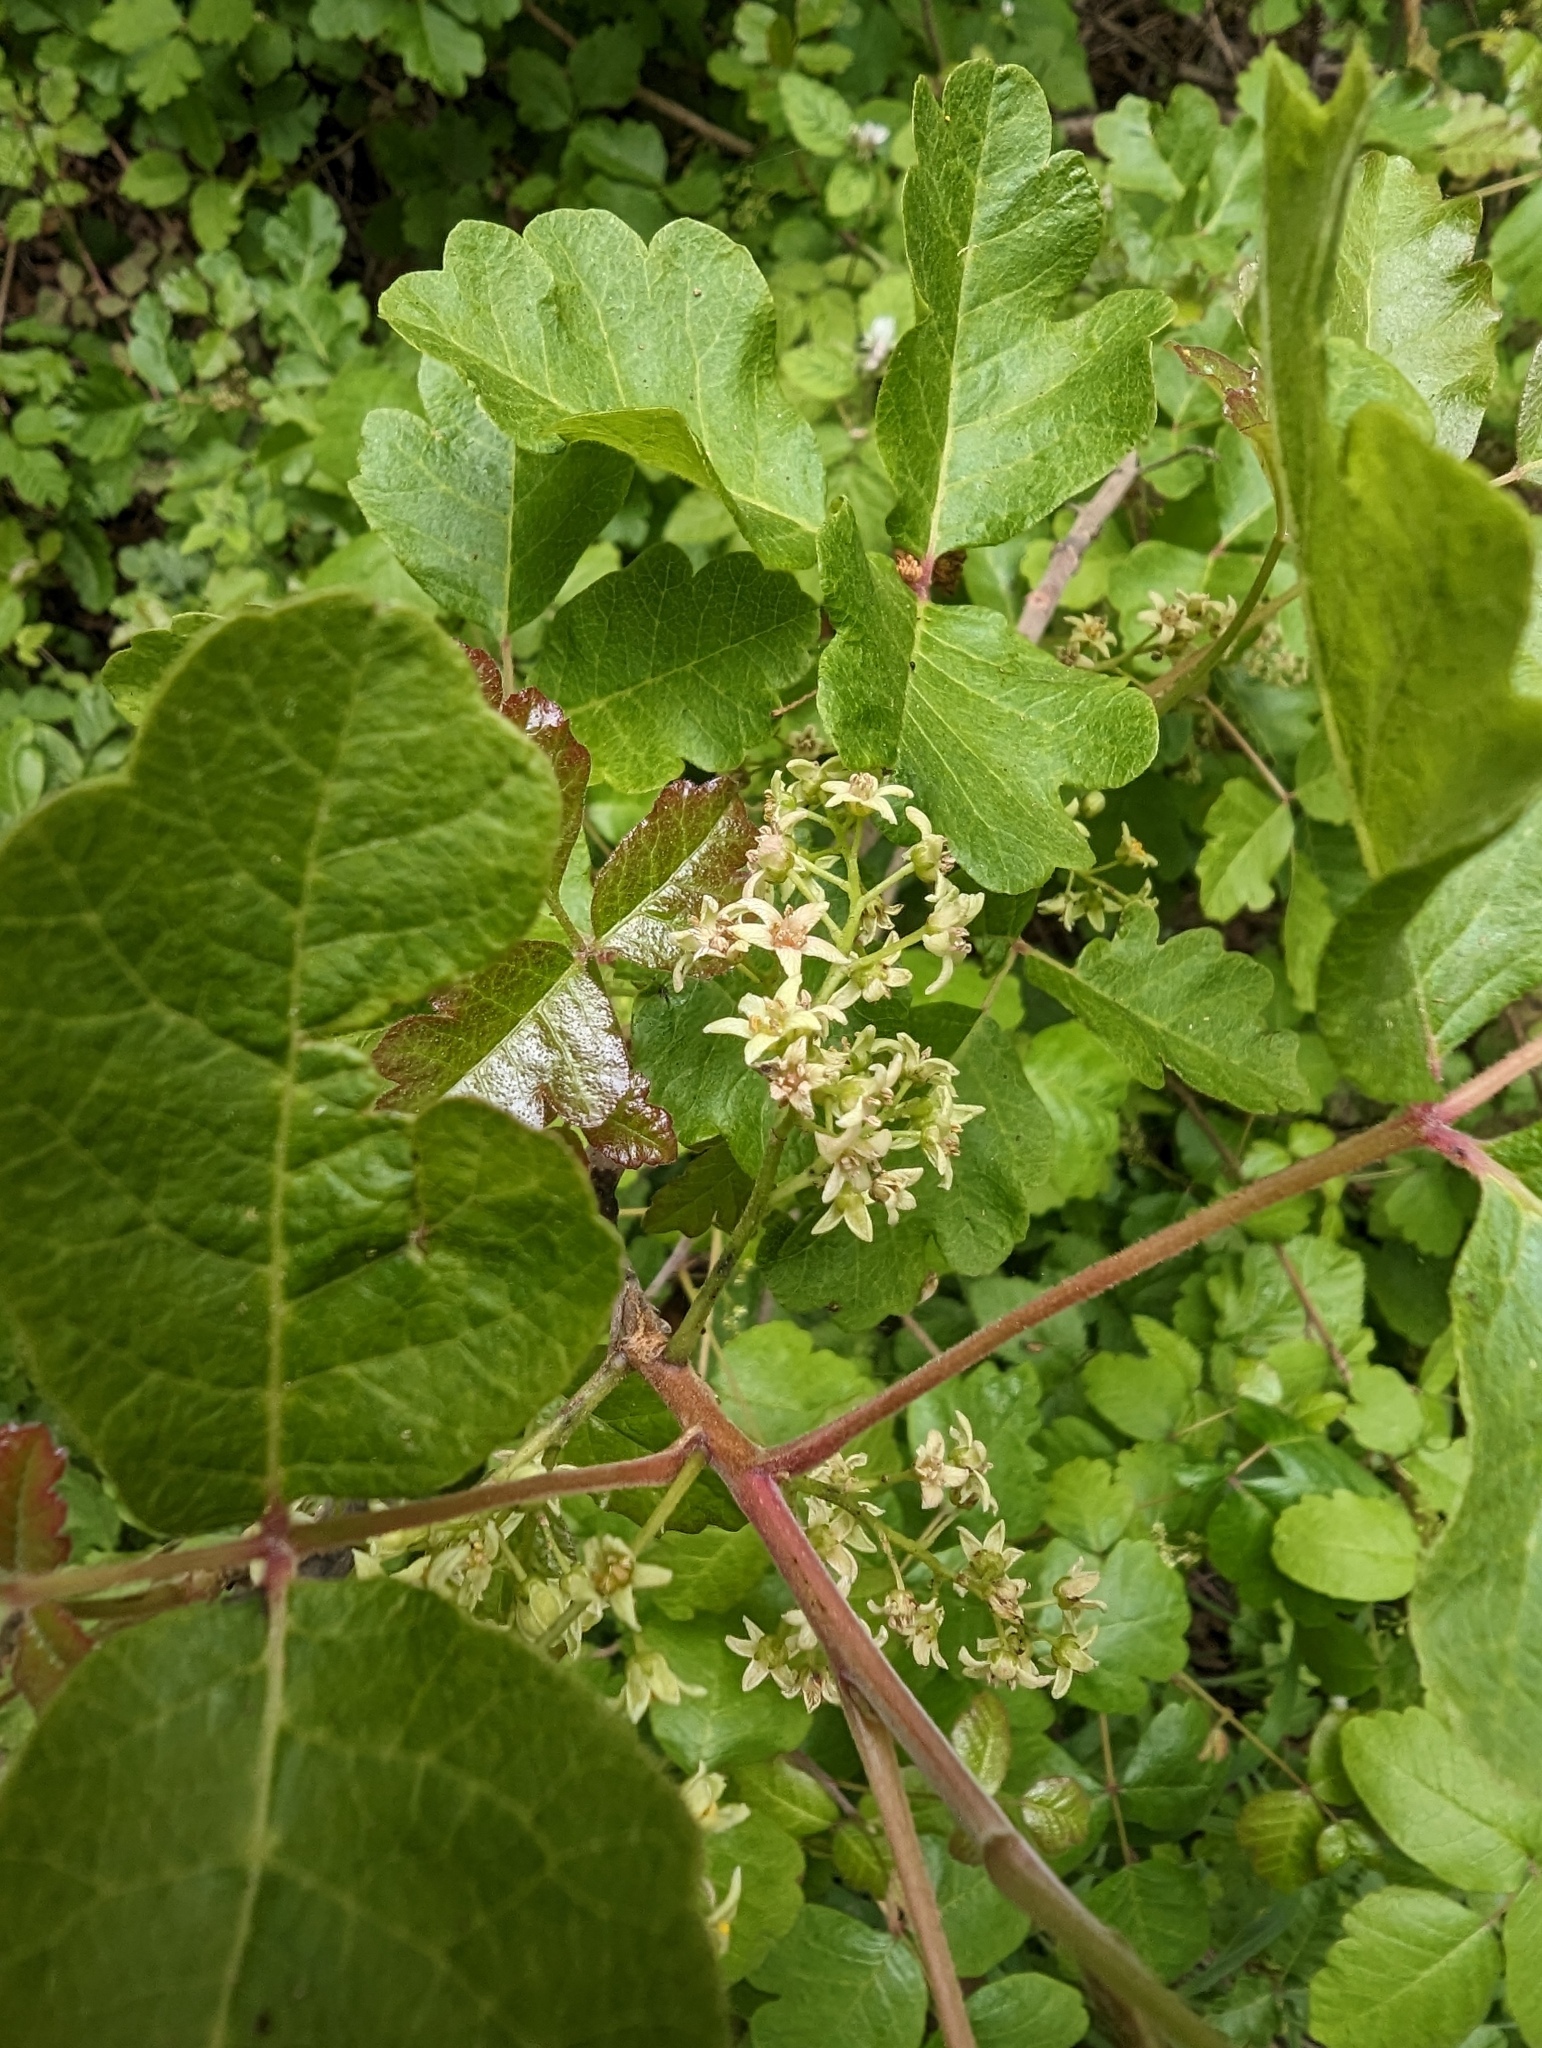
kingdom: Plantae
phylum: Tracheophyta
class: Magnoliopsida
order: Sapindales
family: Anacardiaceae
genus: Toxicodendron
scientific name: Toxicodendron diversilobum
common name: Pacific poison-oak
